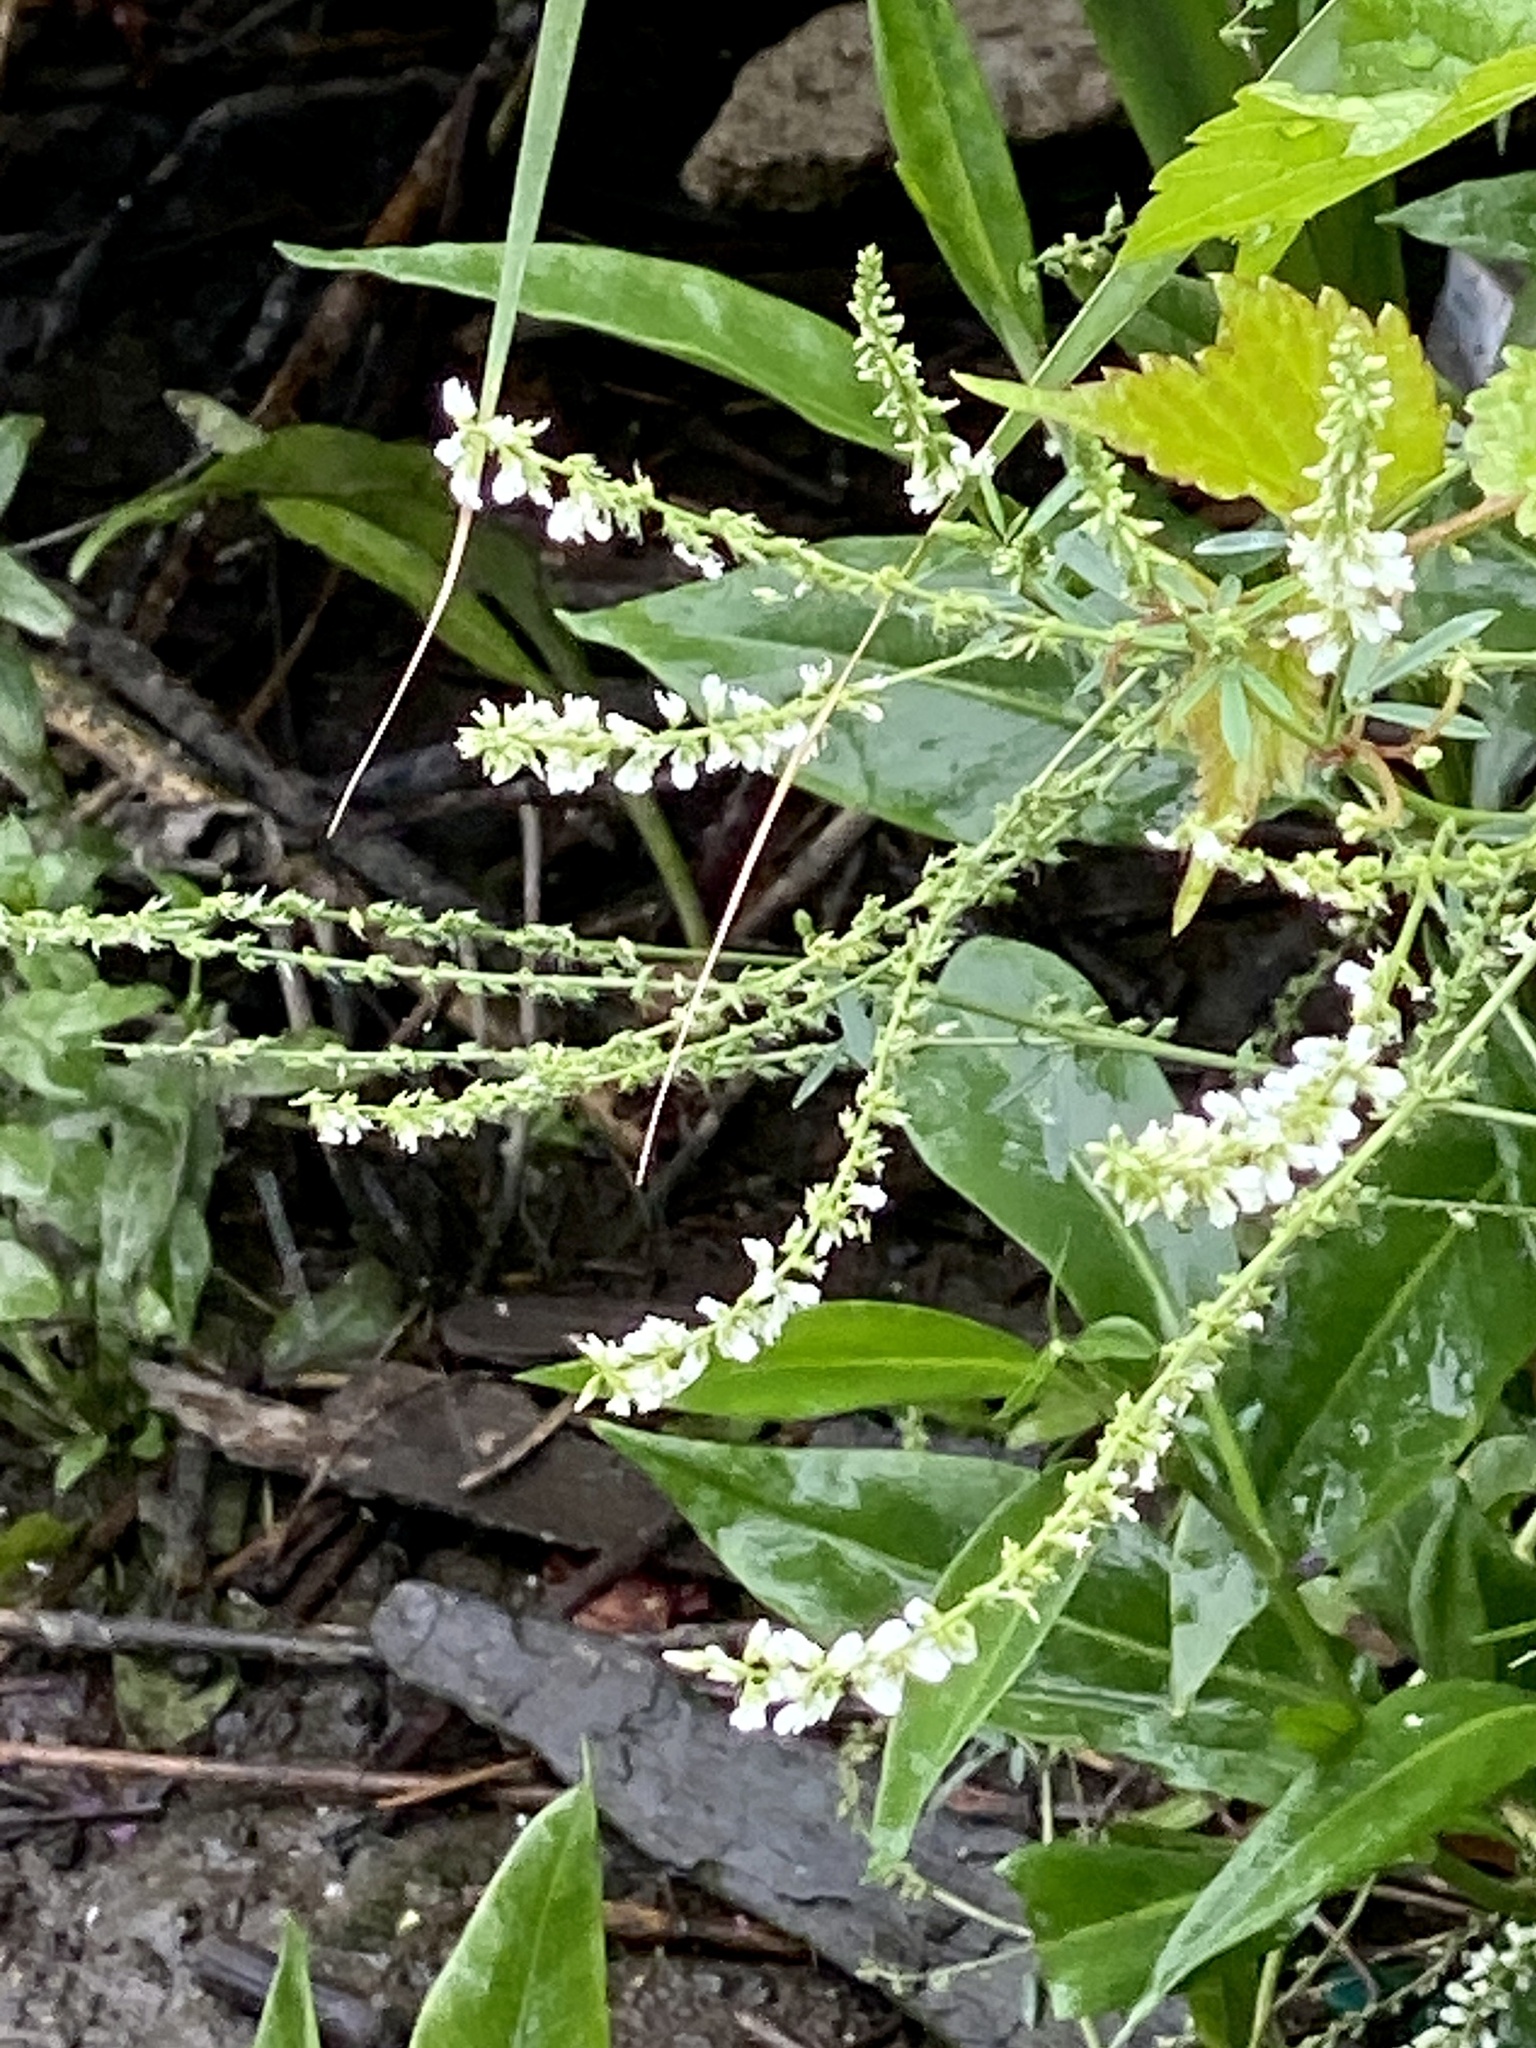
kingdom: Plantae
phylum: Tracheophyta
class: Magnoliopsida
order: Fabales
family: Fabaceae
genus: Melilotus
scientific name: Melilotus albus
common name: White melilot
